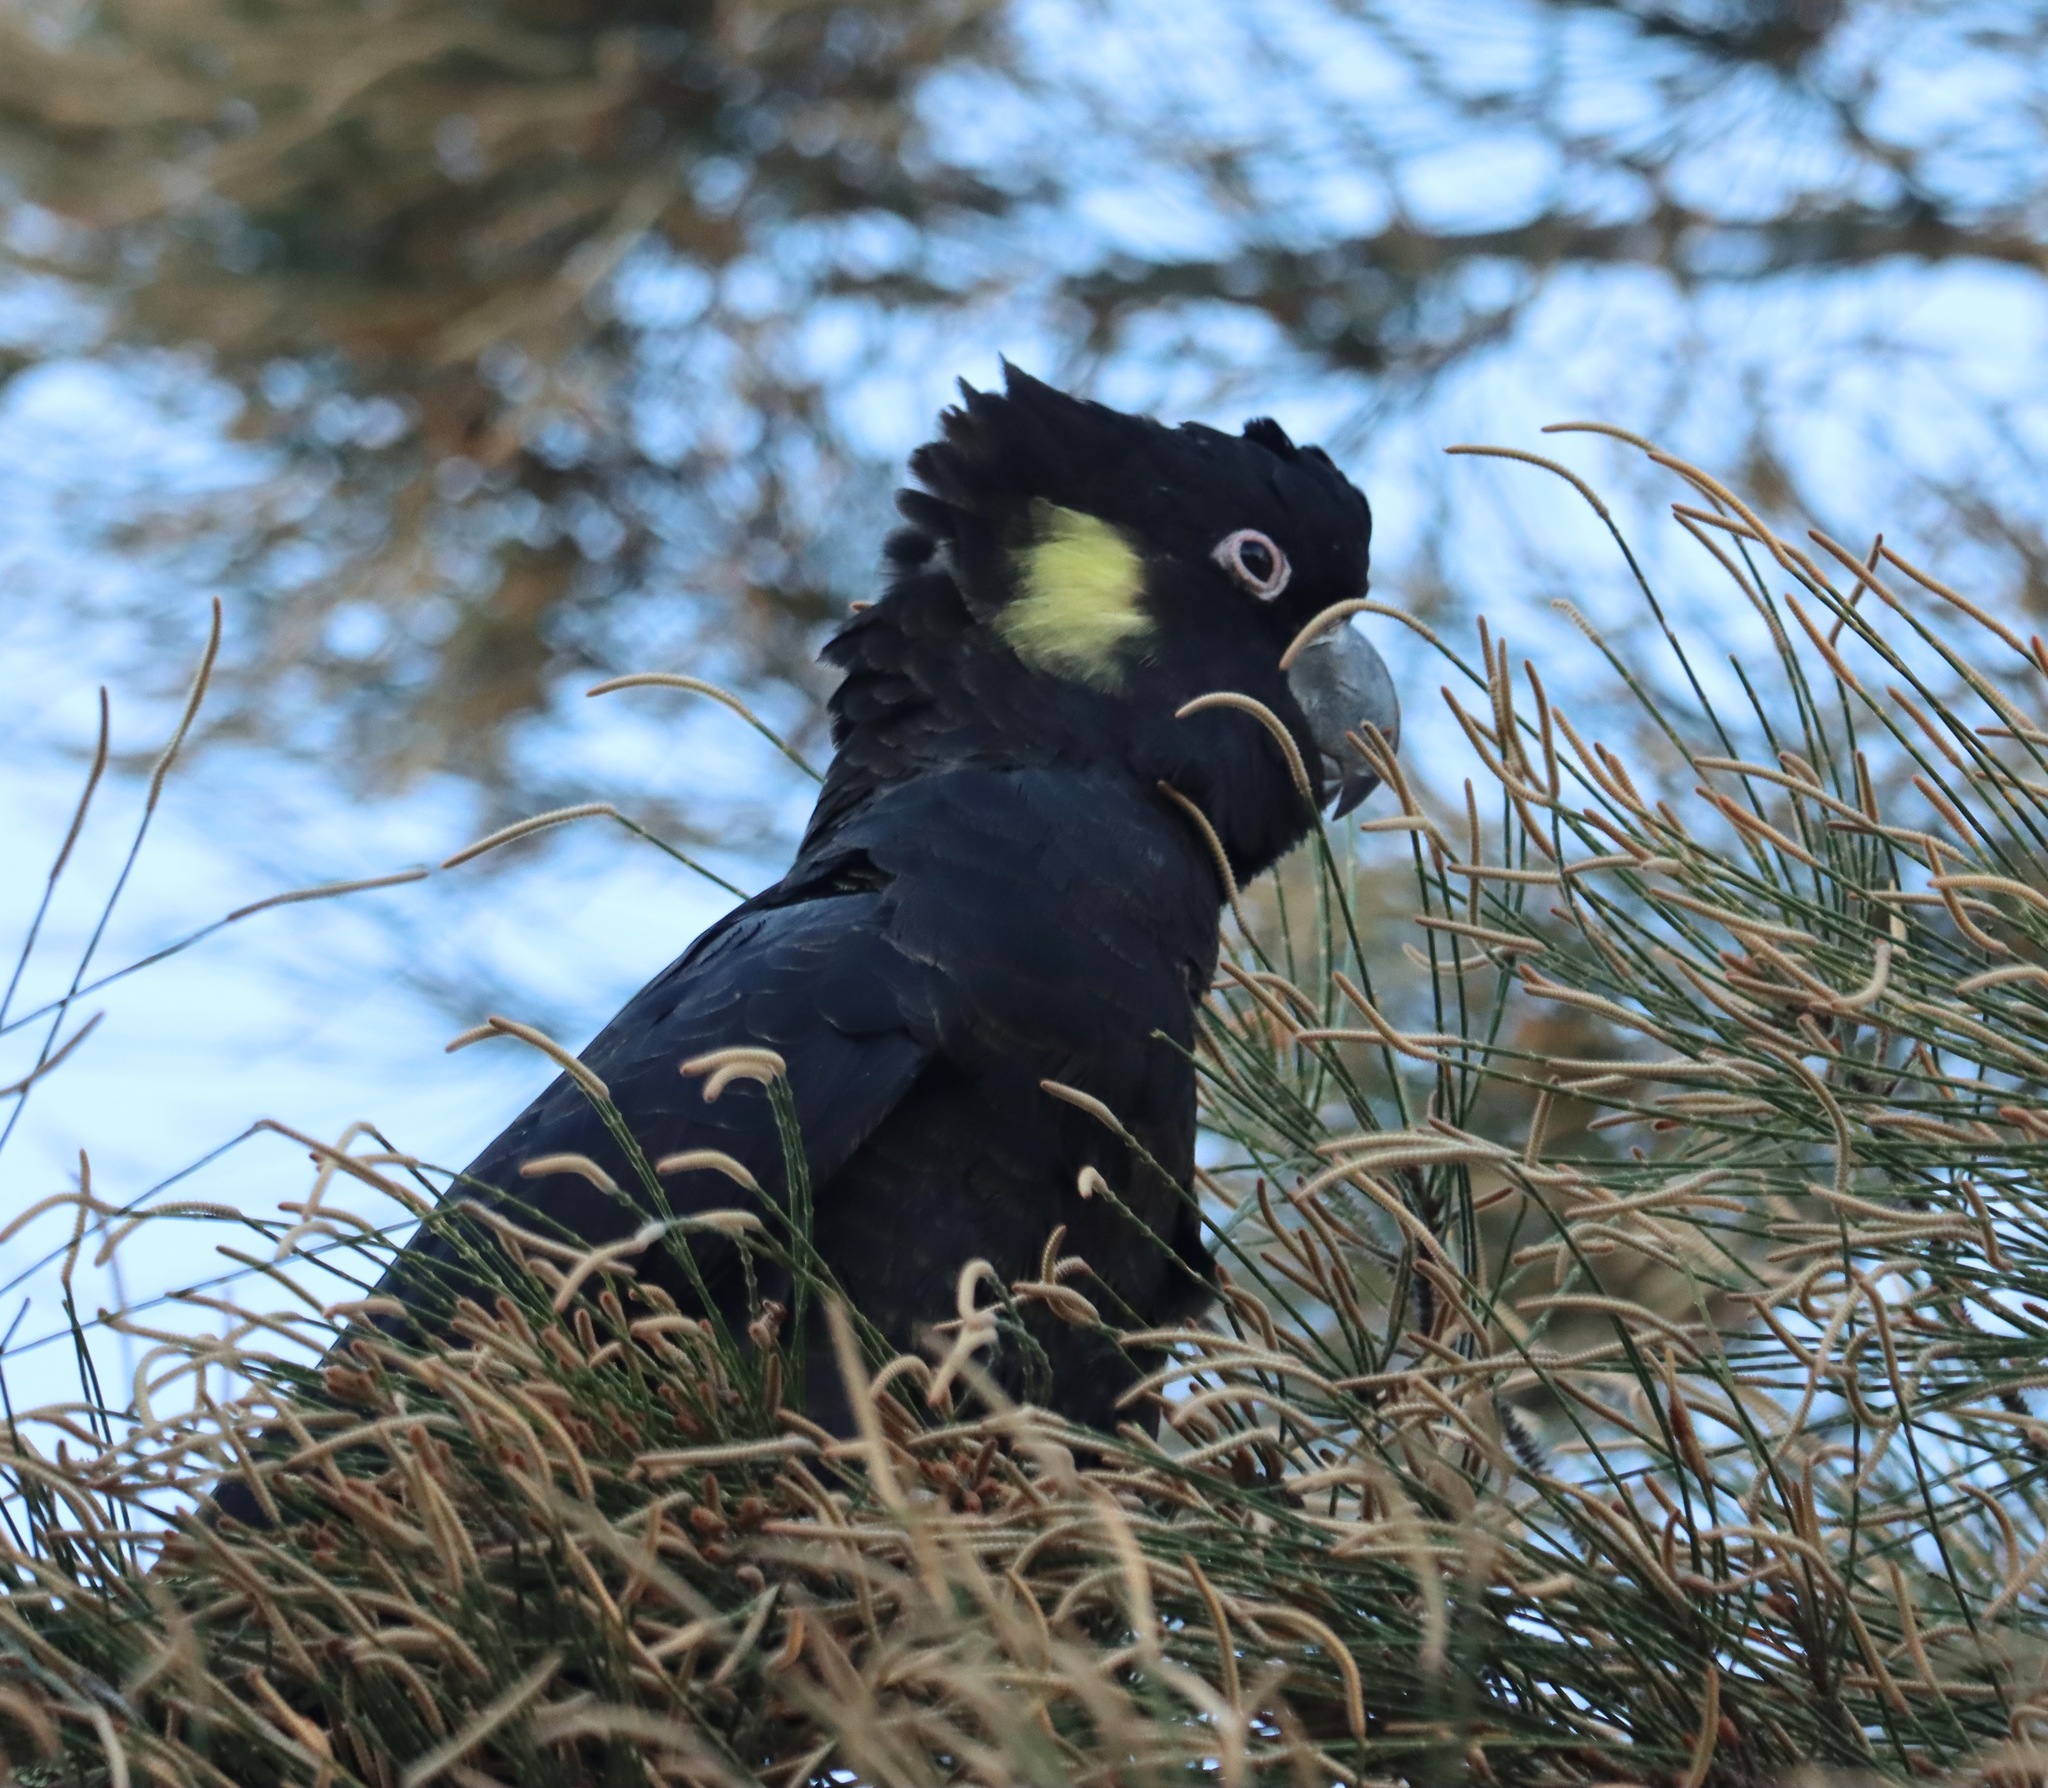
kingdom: Animalia
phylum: Chordata
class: Aves
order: Psittaciformes
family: Cacatuidae
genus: Zanda
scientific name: Zanda funerea
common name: Yellow-tailed black-cockatoo
